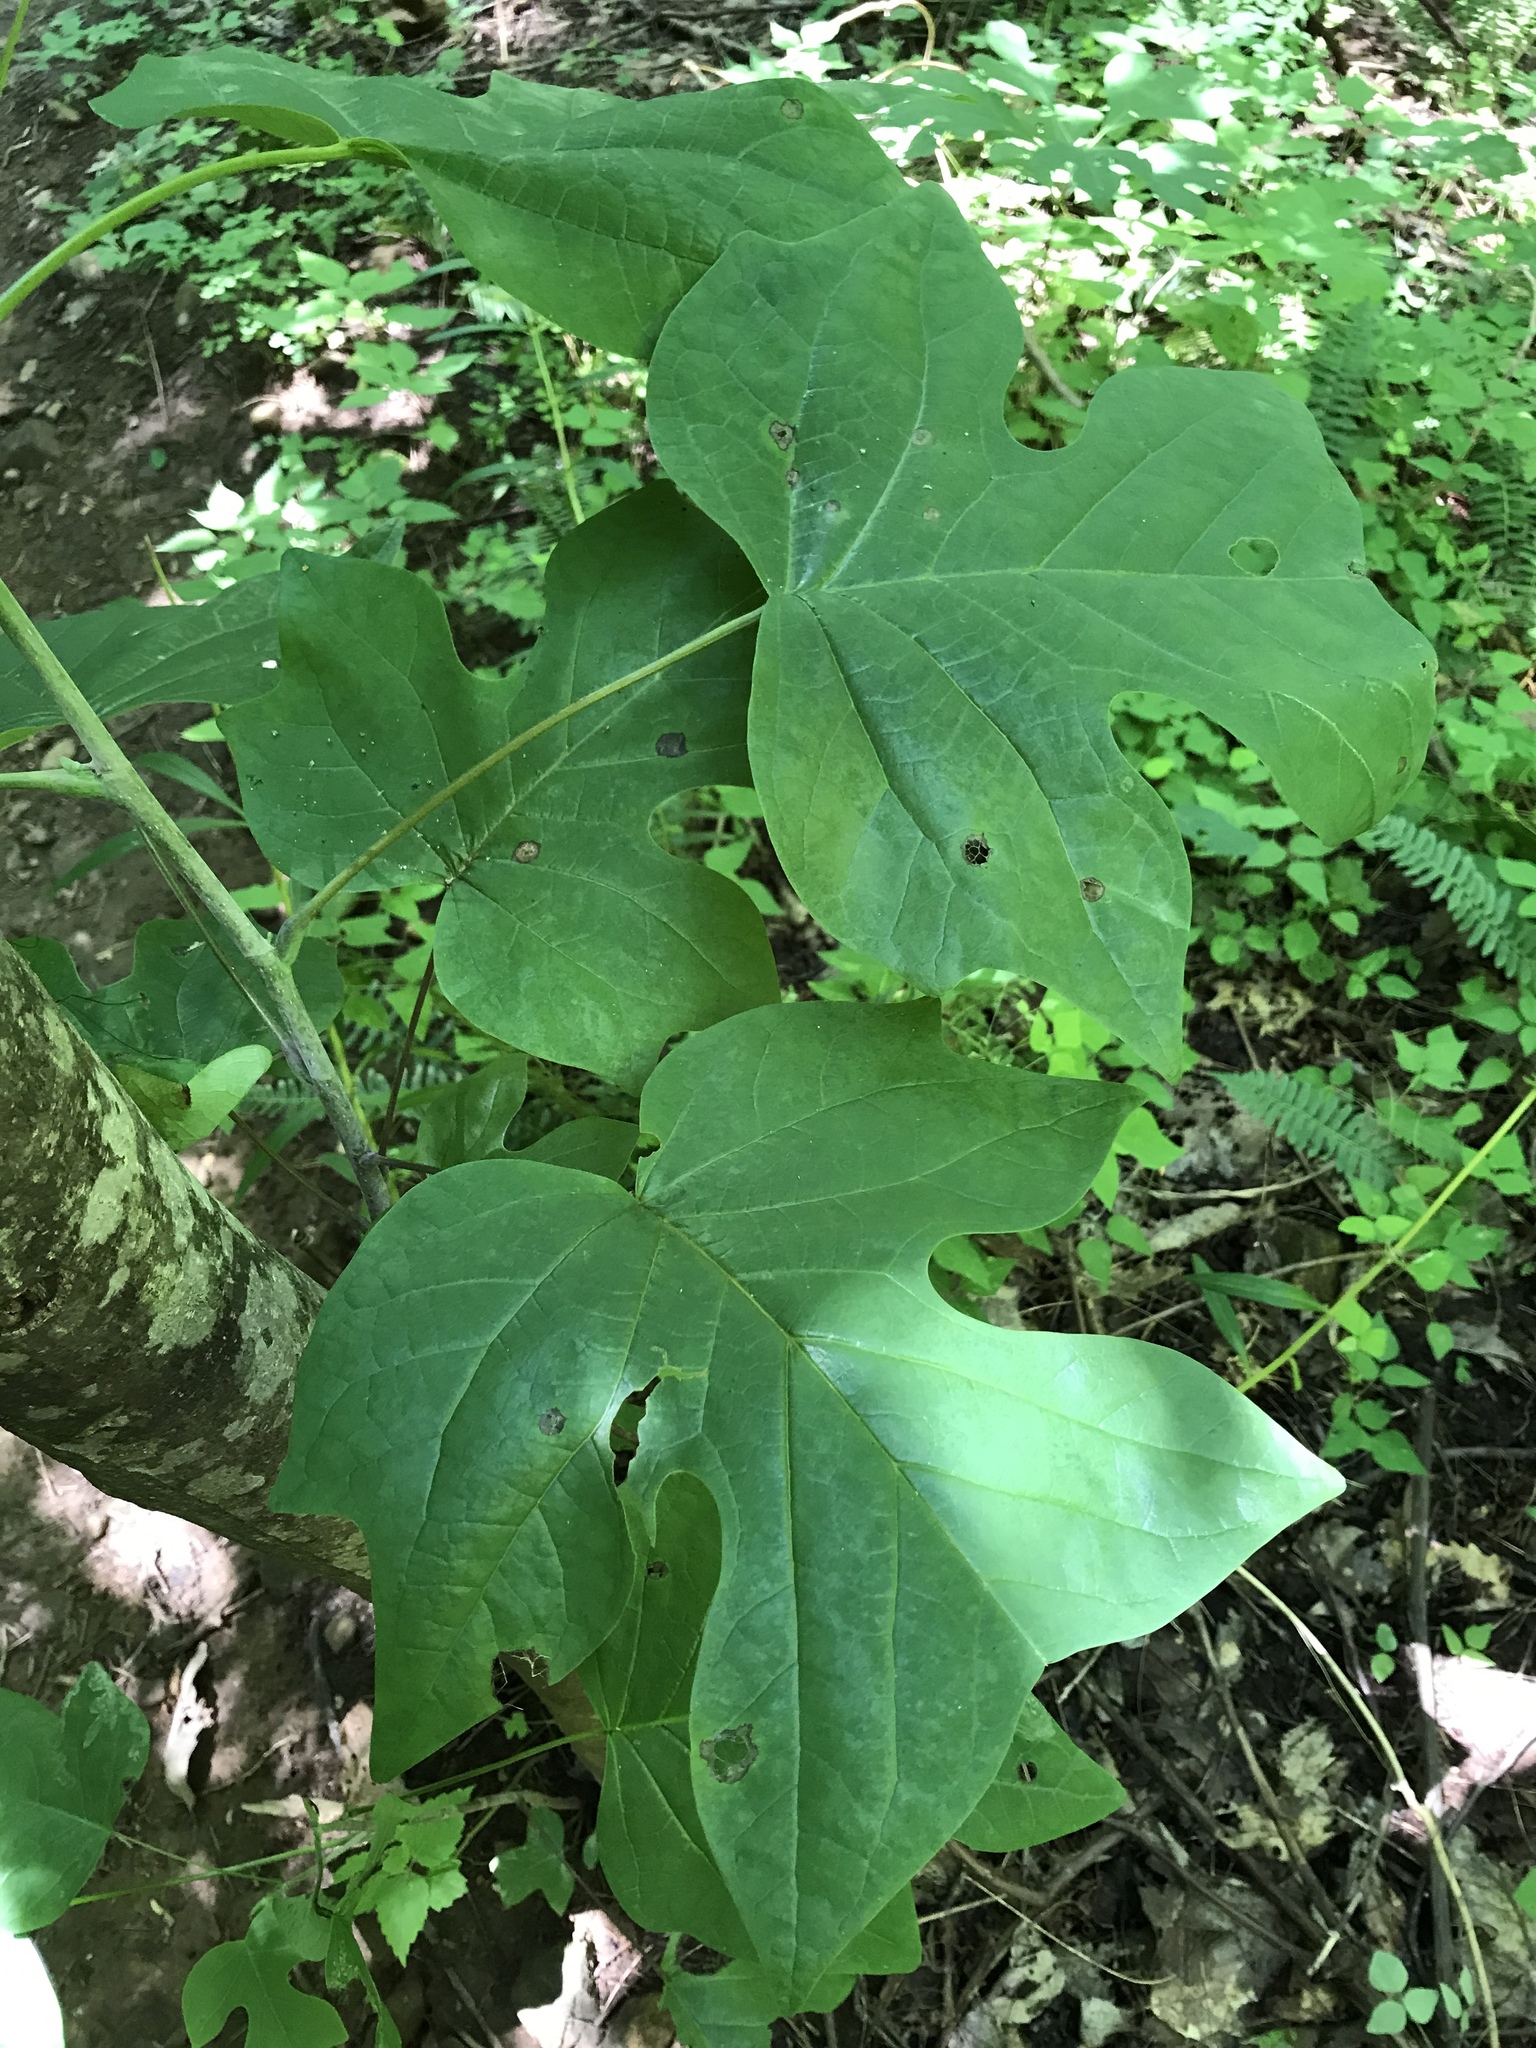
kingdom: Plantae
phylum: Tracheophyta
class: Magnoliopsida
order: Magnoliales
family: Magnoliaceae
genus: Liriodendron
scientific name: Liriodendron tulipifera
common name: Tulip tree
